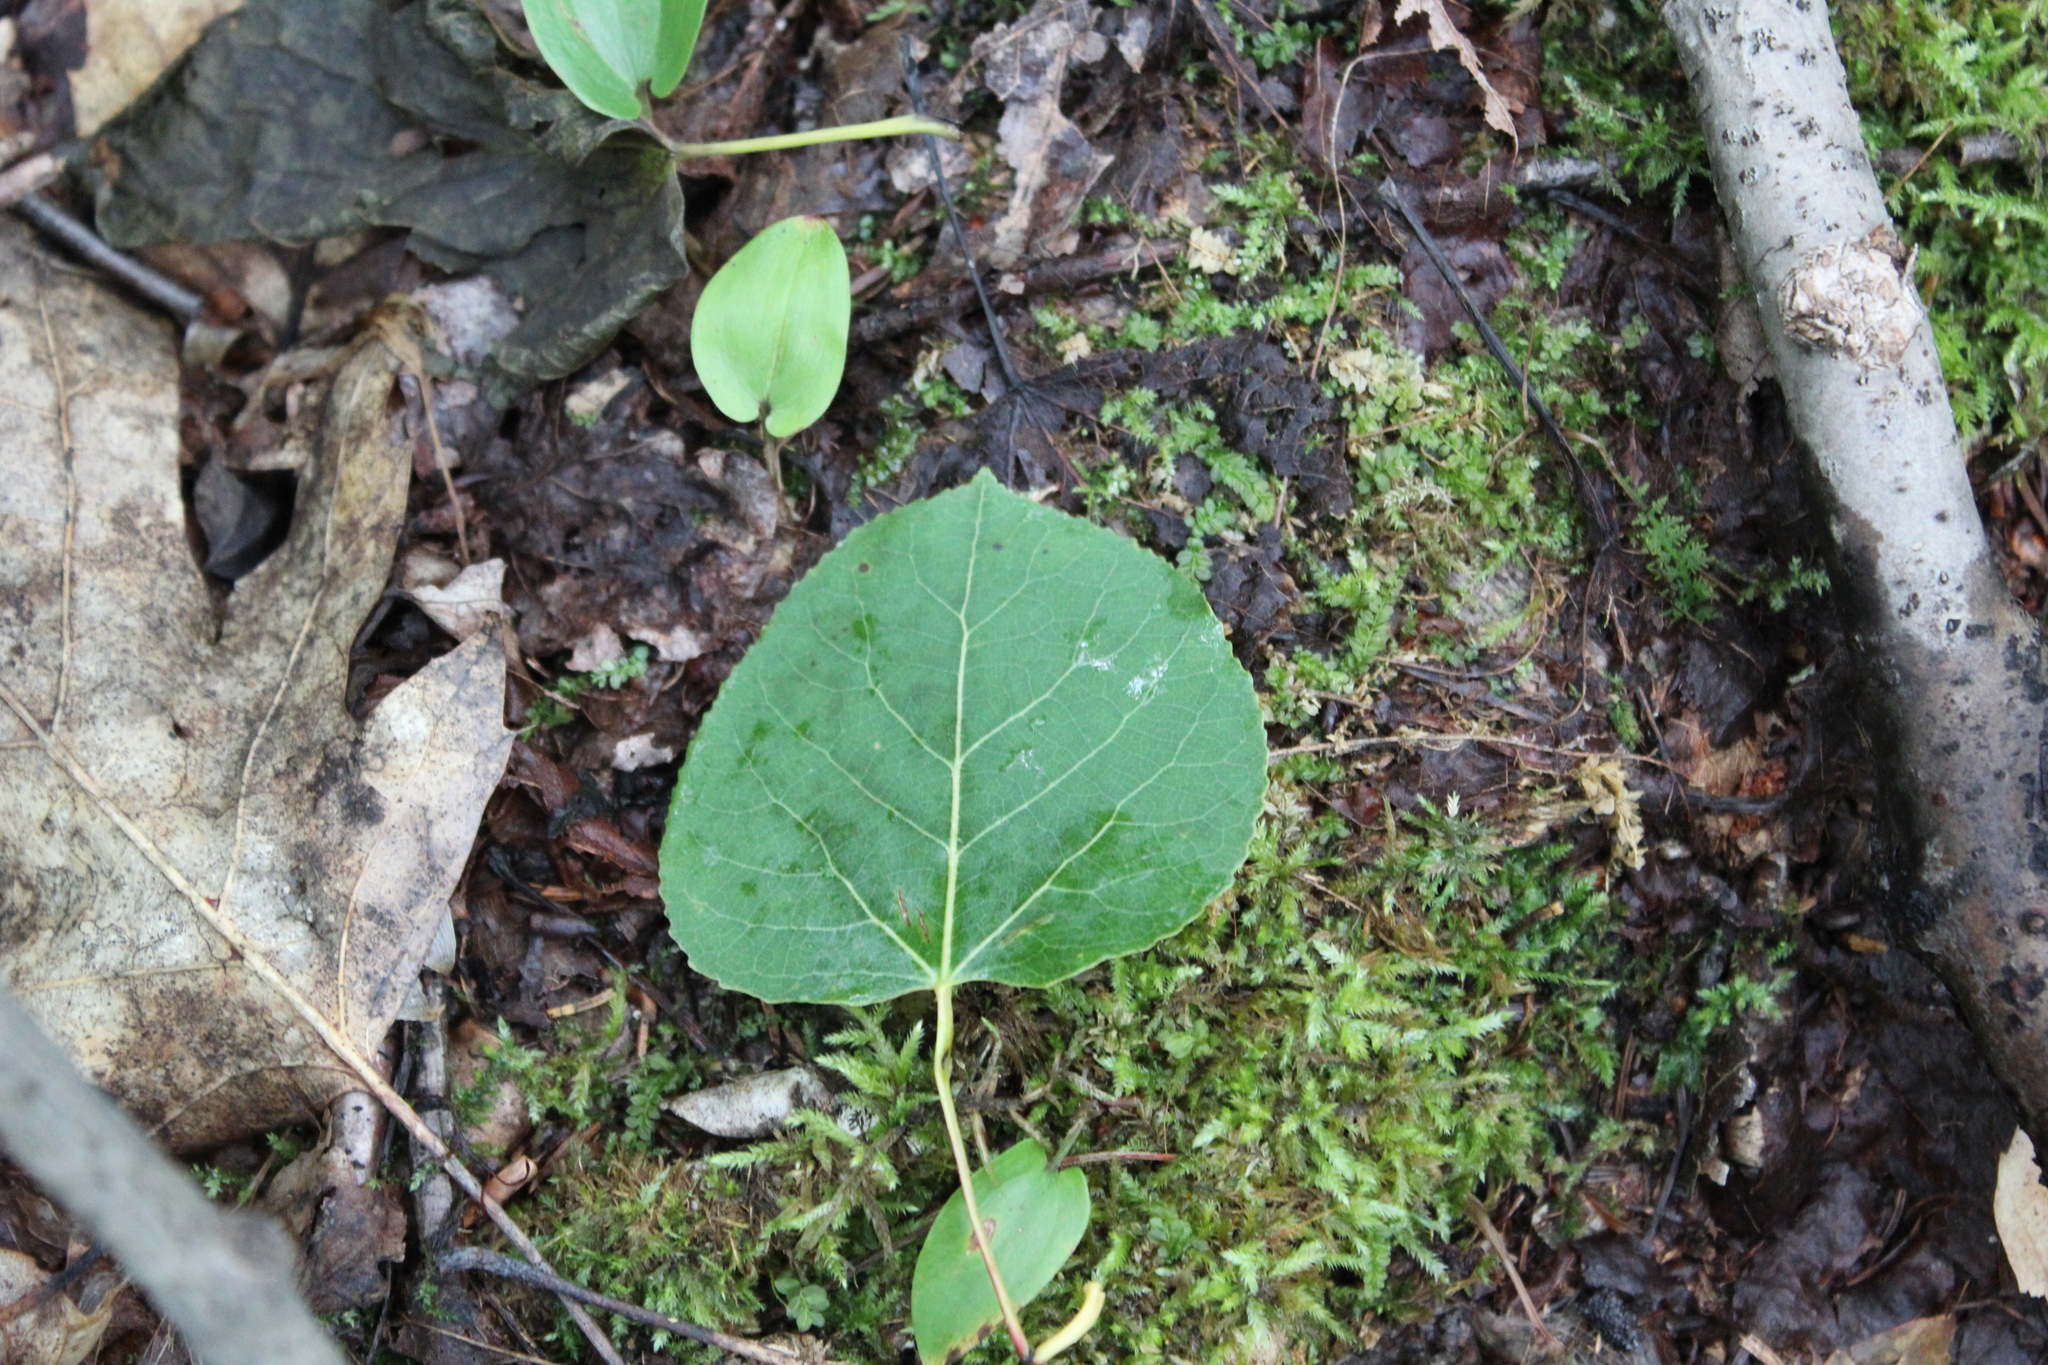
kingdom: Plantae
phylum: Tracheophyta
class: Magnoliopsida
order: Malpighiales
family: Salicaceae
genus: Populus
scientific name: Populus tremuloides
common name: Quaking aspen
